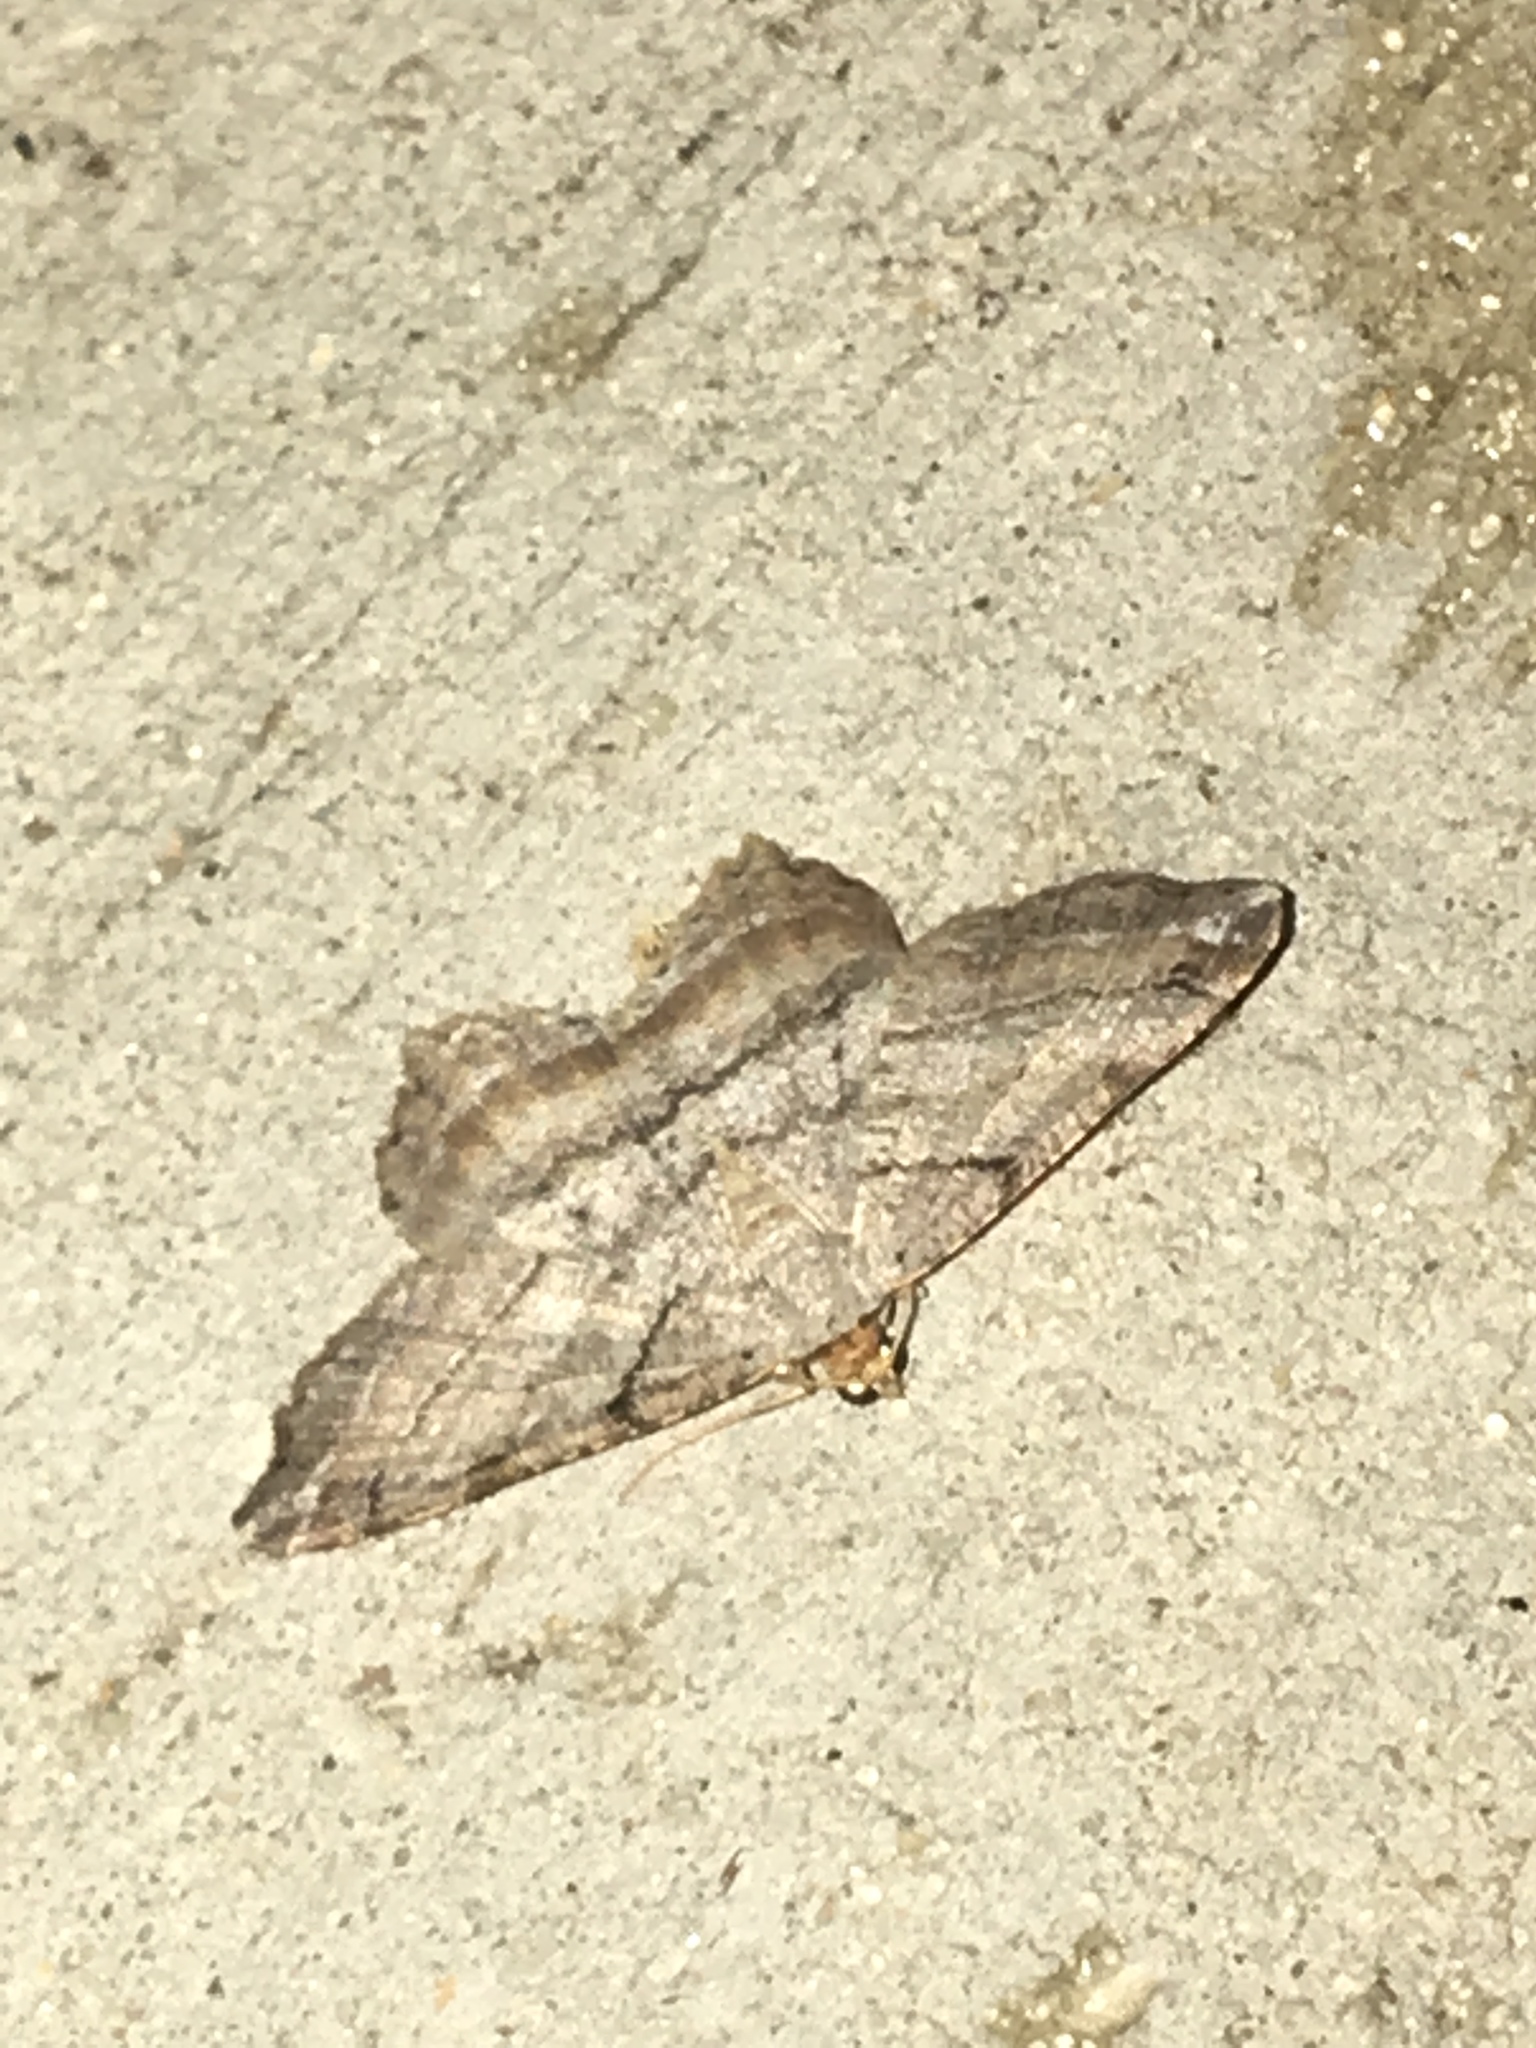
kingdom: Animalia
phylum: Arthropoda
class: Insecta
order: Lepidoptera
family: Geometridae
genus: Hypagyrtis
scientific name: Hypagyrtis unipunctata
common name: One-spotted variant
